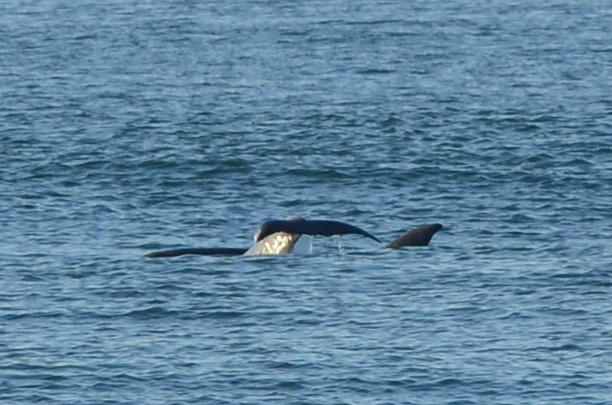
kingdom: Animalia
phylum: Chordata
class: Mammalia
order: Cetacea
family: Delphinidae
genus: Tursiops
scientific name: Tursiops truncatus
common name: Bottlenose dolphin
